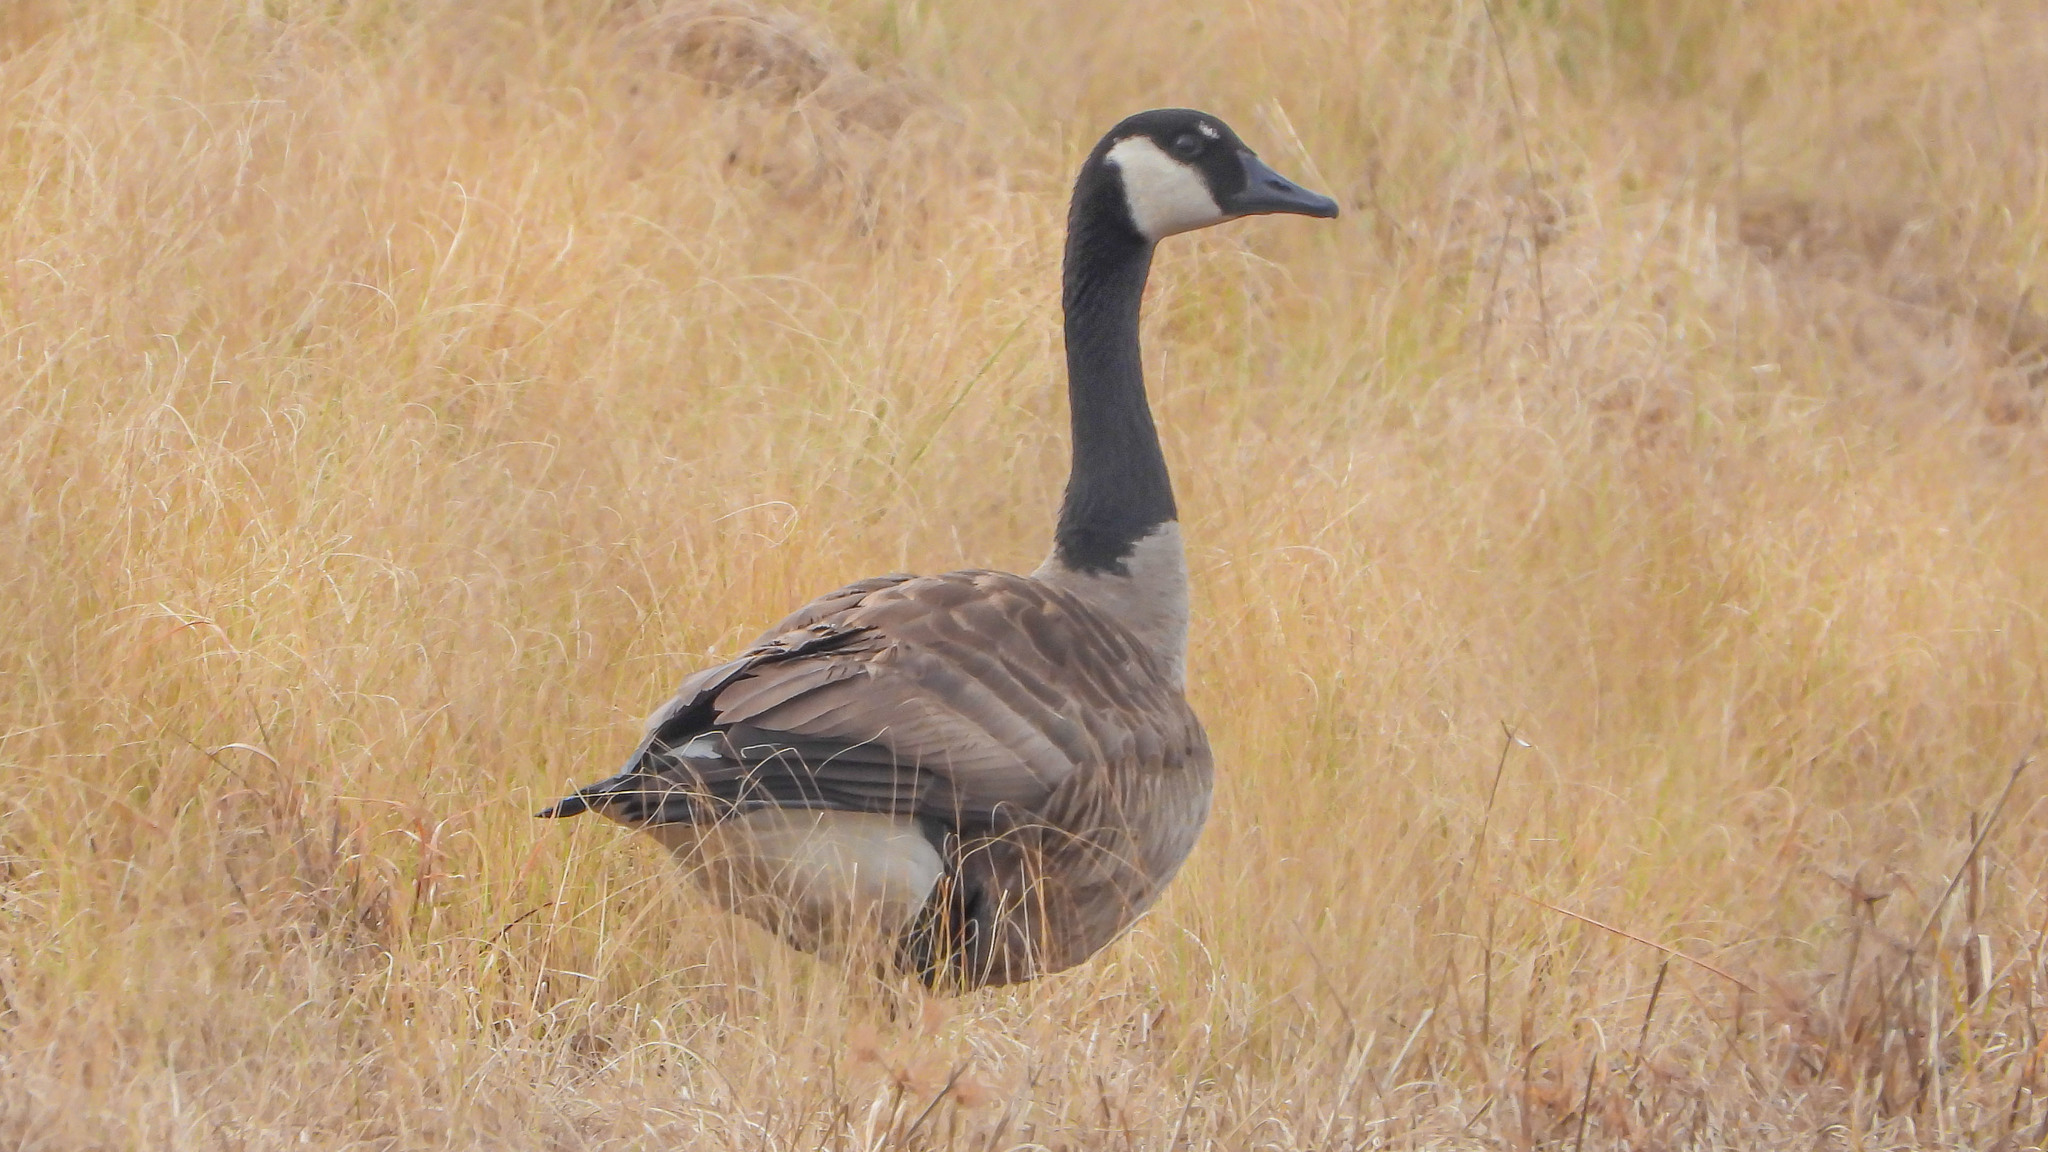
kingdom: Animalia
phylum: Chordata
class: Aves
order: Anseriformes
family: Anatidae
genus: Branta
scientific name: Branta canadensis
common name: Canada goose
